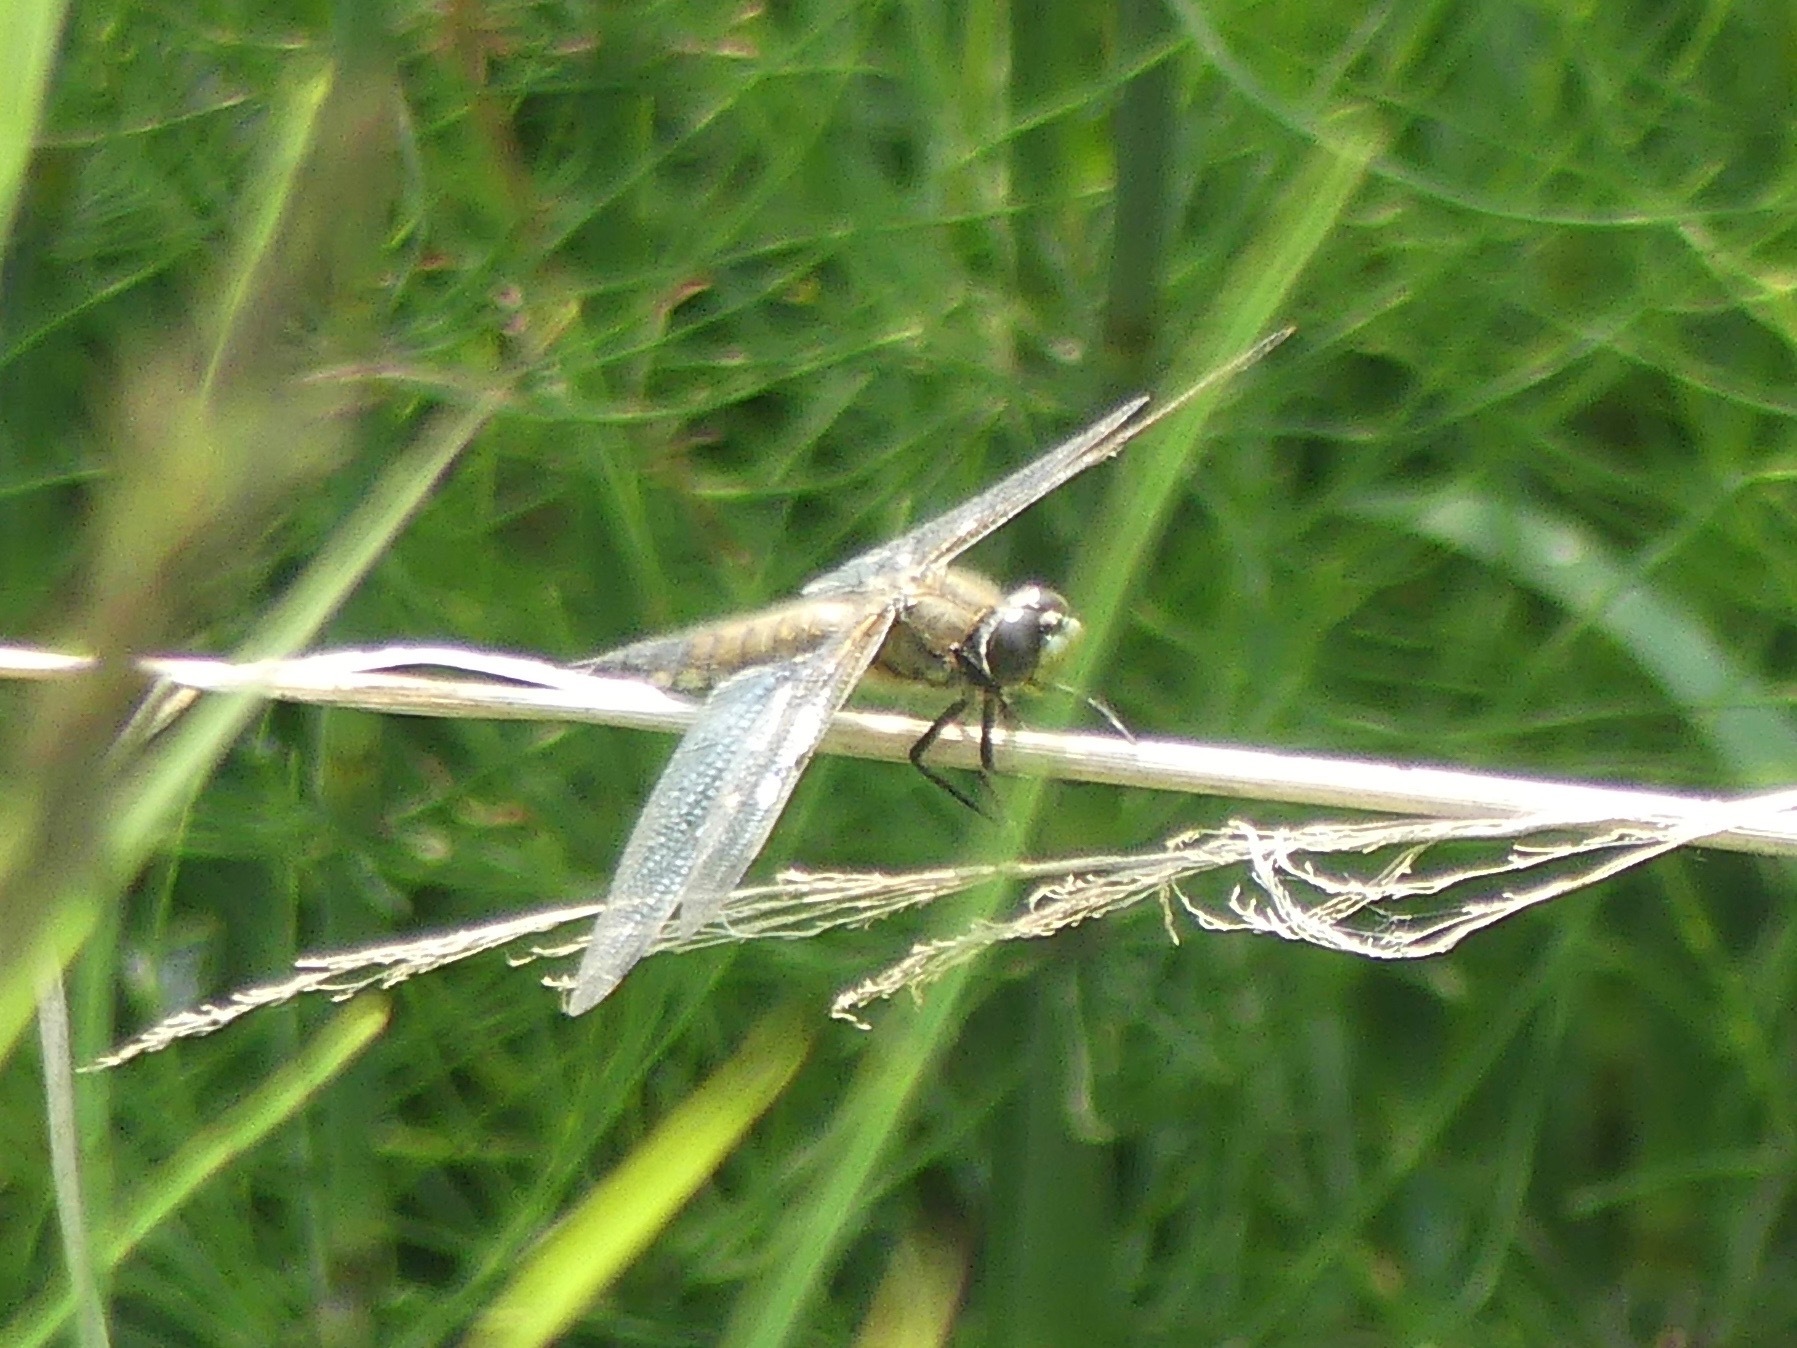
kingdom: Animalia
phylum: Arthropoda
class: Insecta
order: Odonata
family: Libellulidae
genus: Libellula
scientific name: Libellula quadrimaculata
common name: Four-spotted chaser
